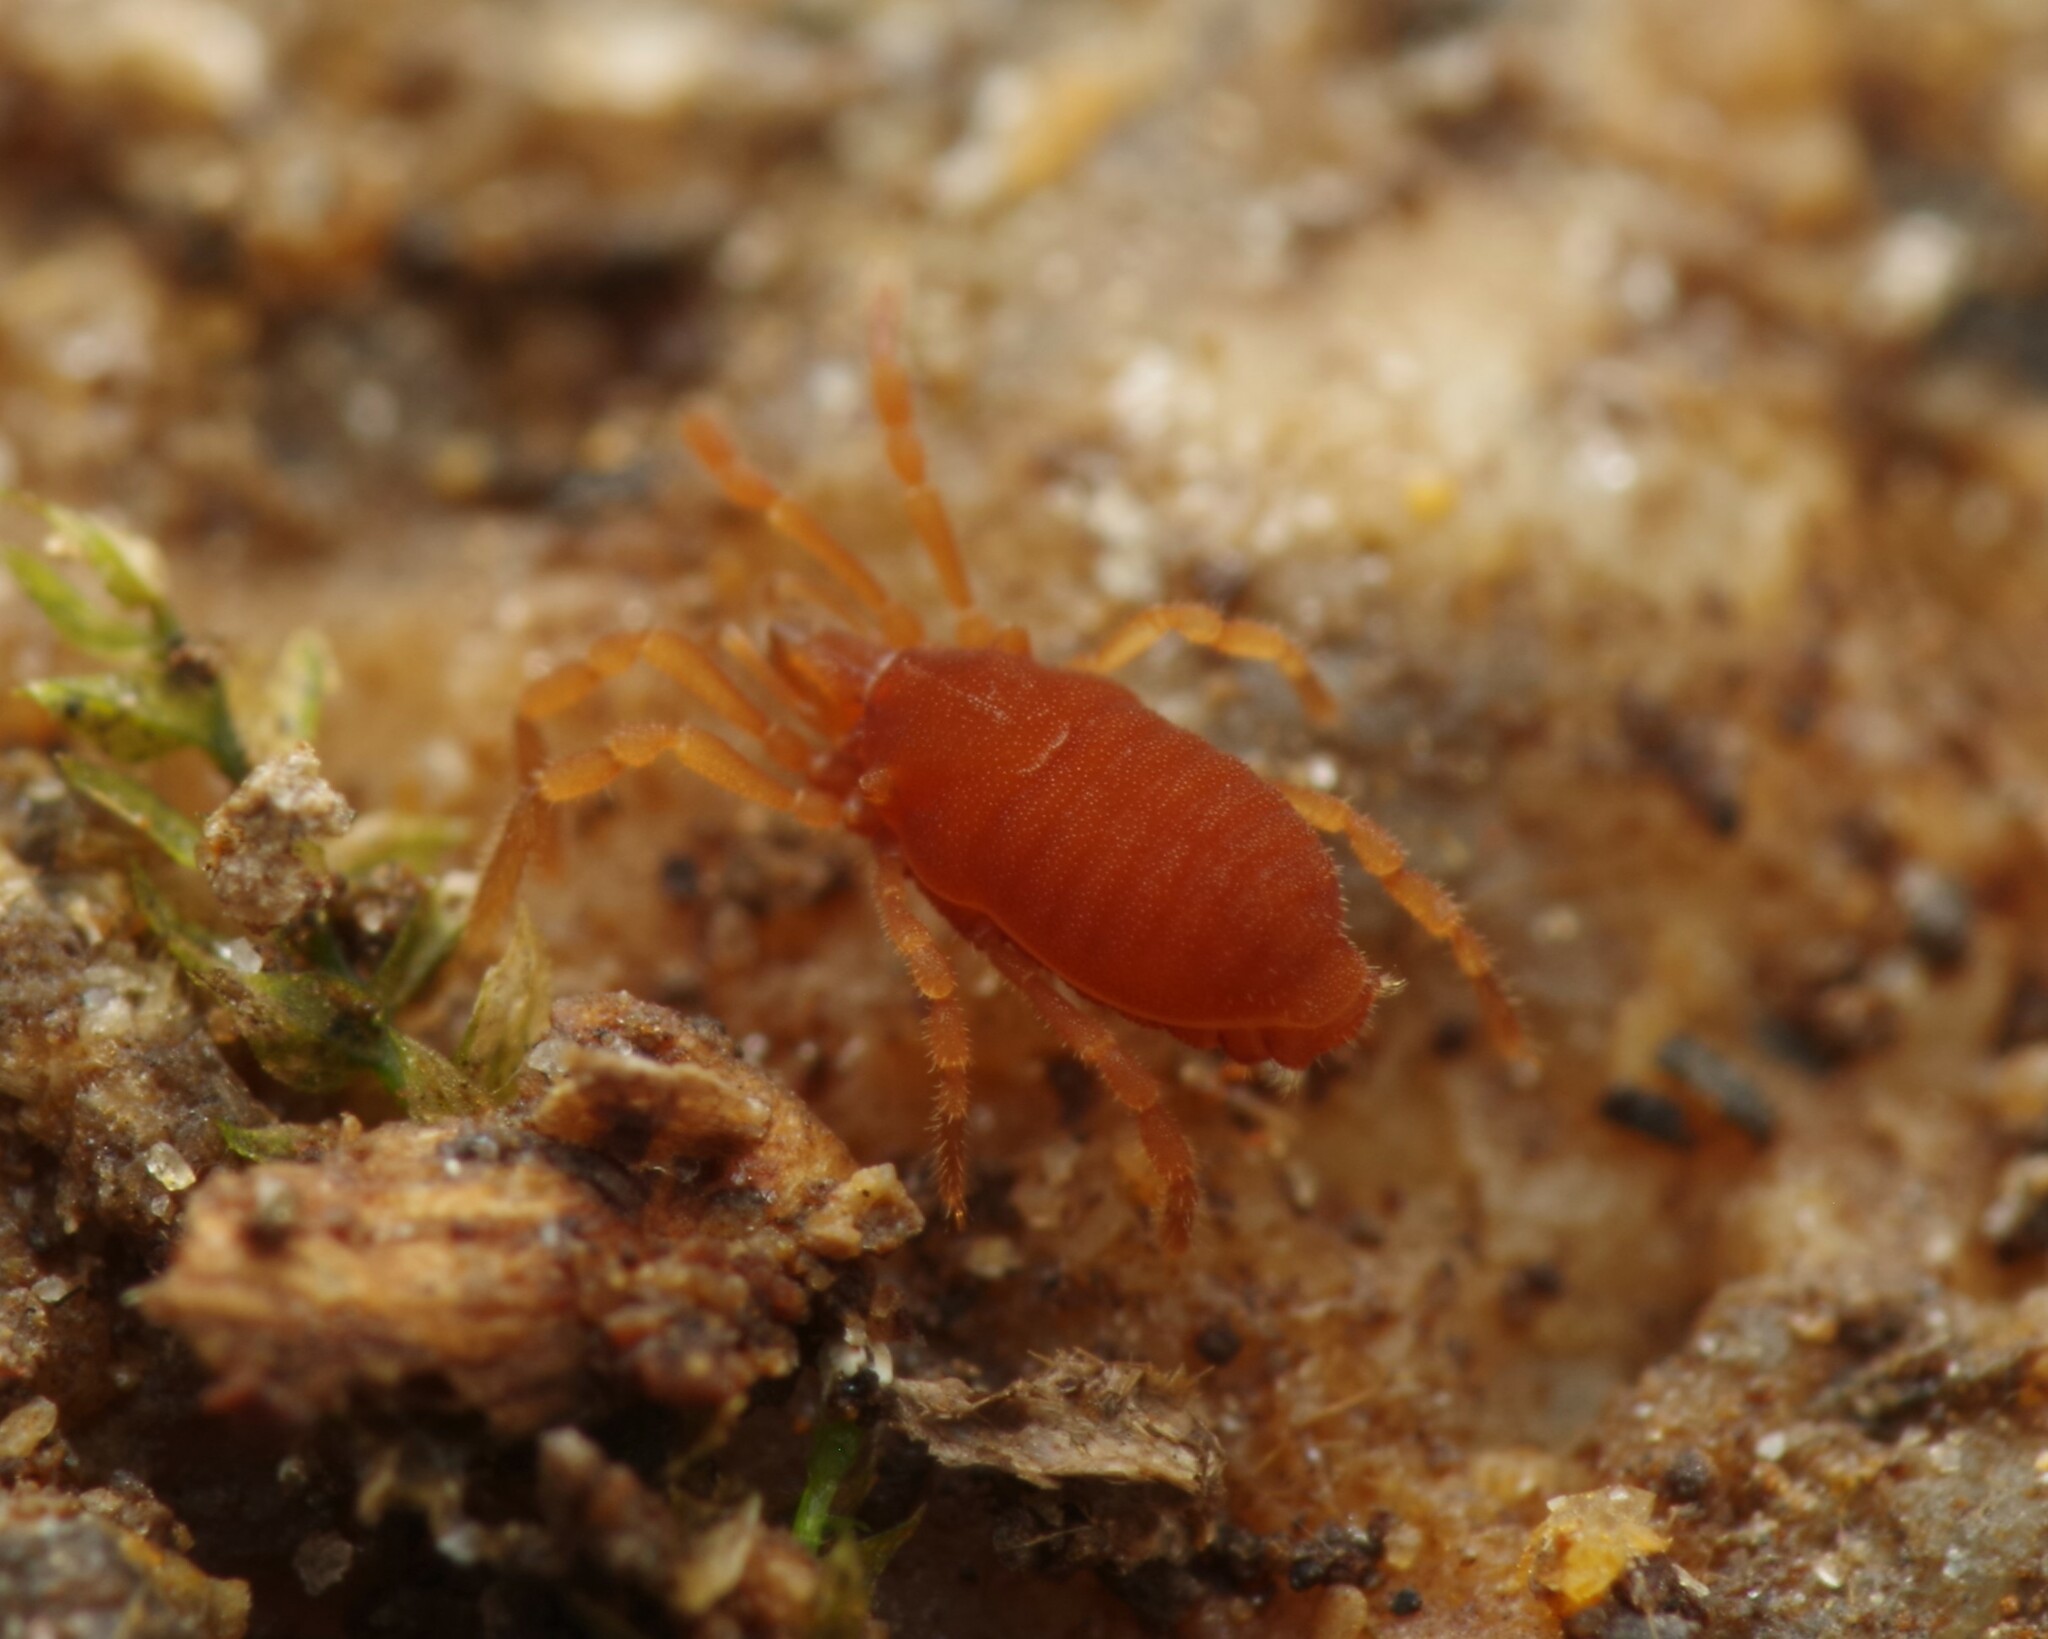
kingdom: Animalia
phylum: Arthropoda
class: Arachnida
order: Opiliones
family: Sironidae
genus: Siro
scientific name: Siro rubens
